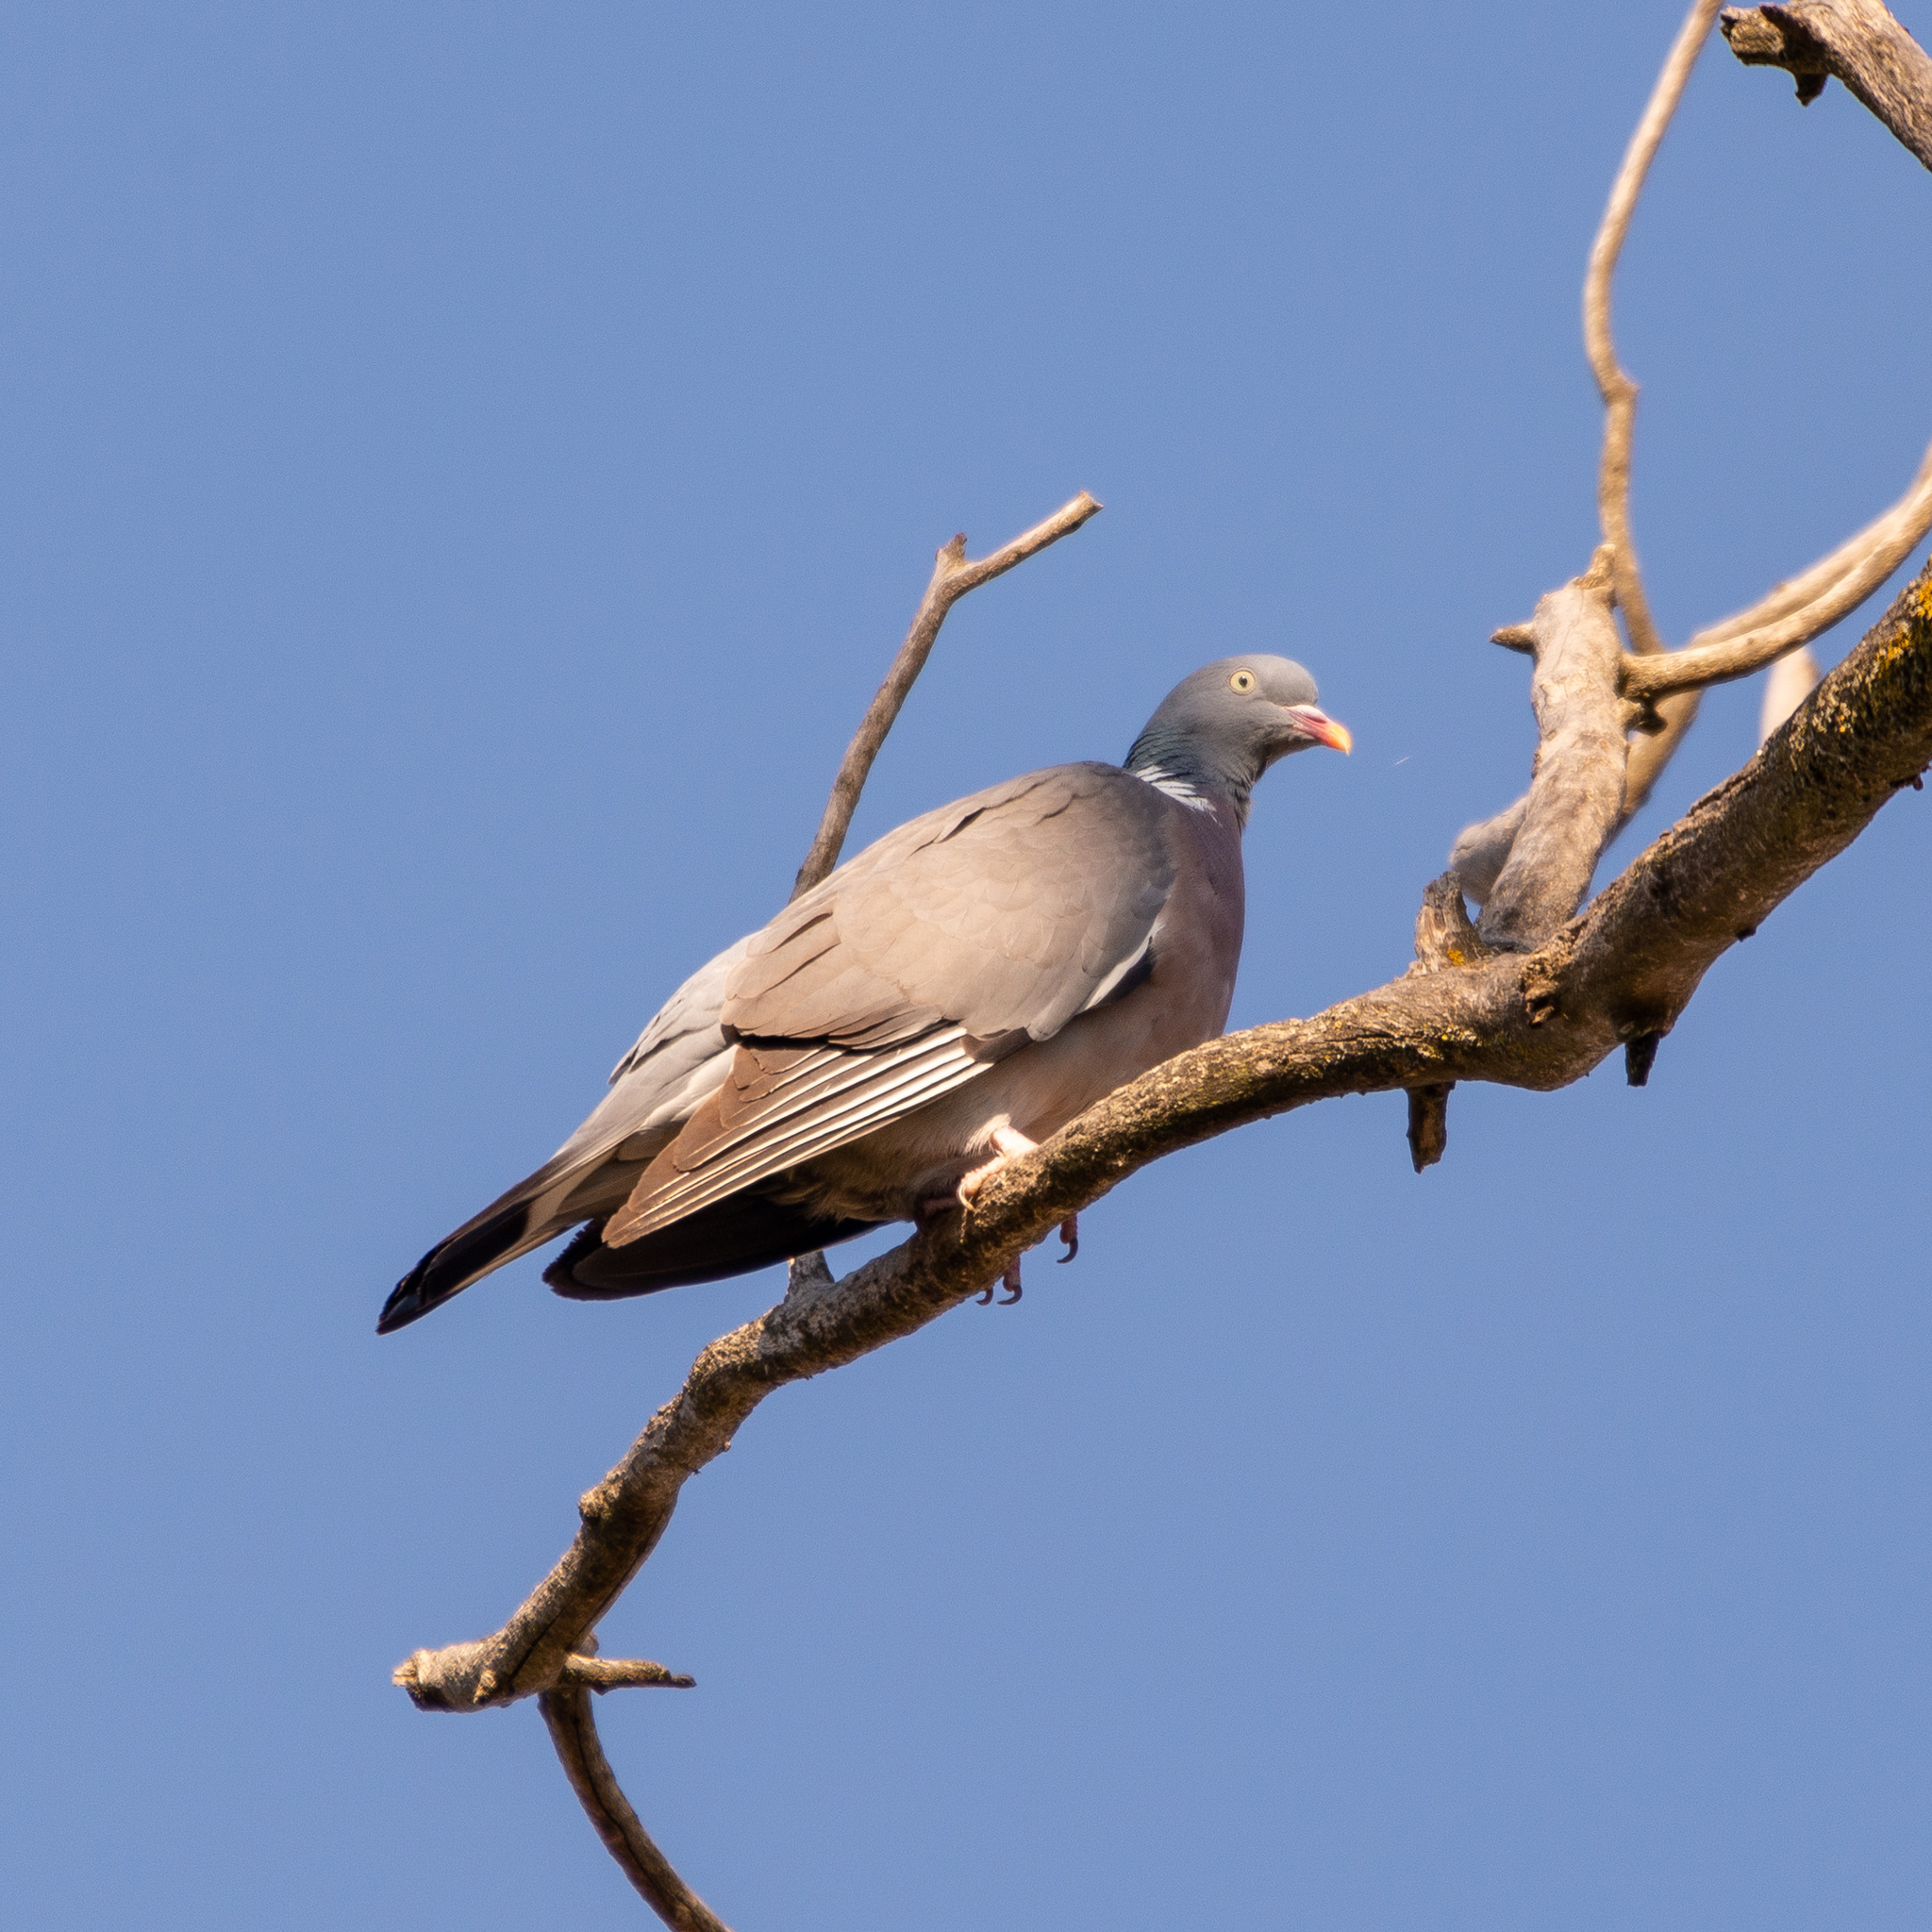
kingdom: Animalia
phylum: Chordata
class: Aves
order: Columbiformes
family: Columbidae
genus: Columba
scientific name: Columba palumbus
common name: Common wood pigeon
